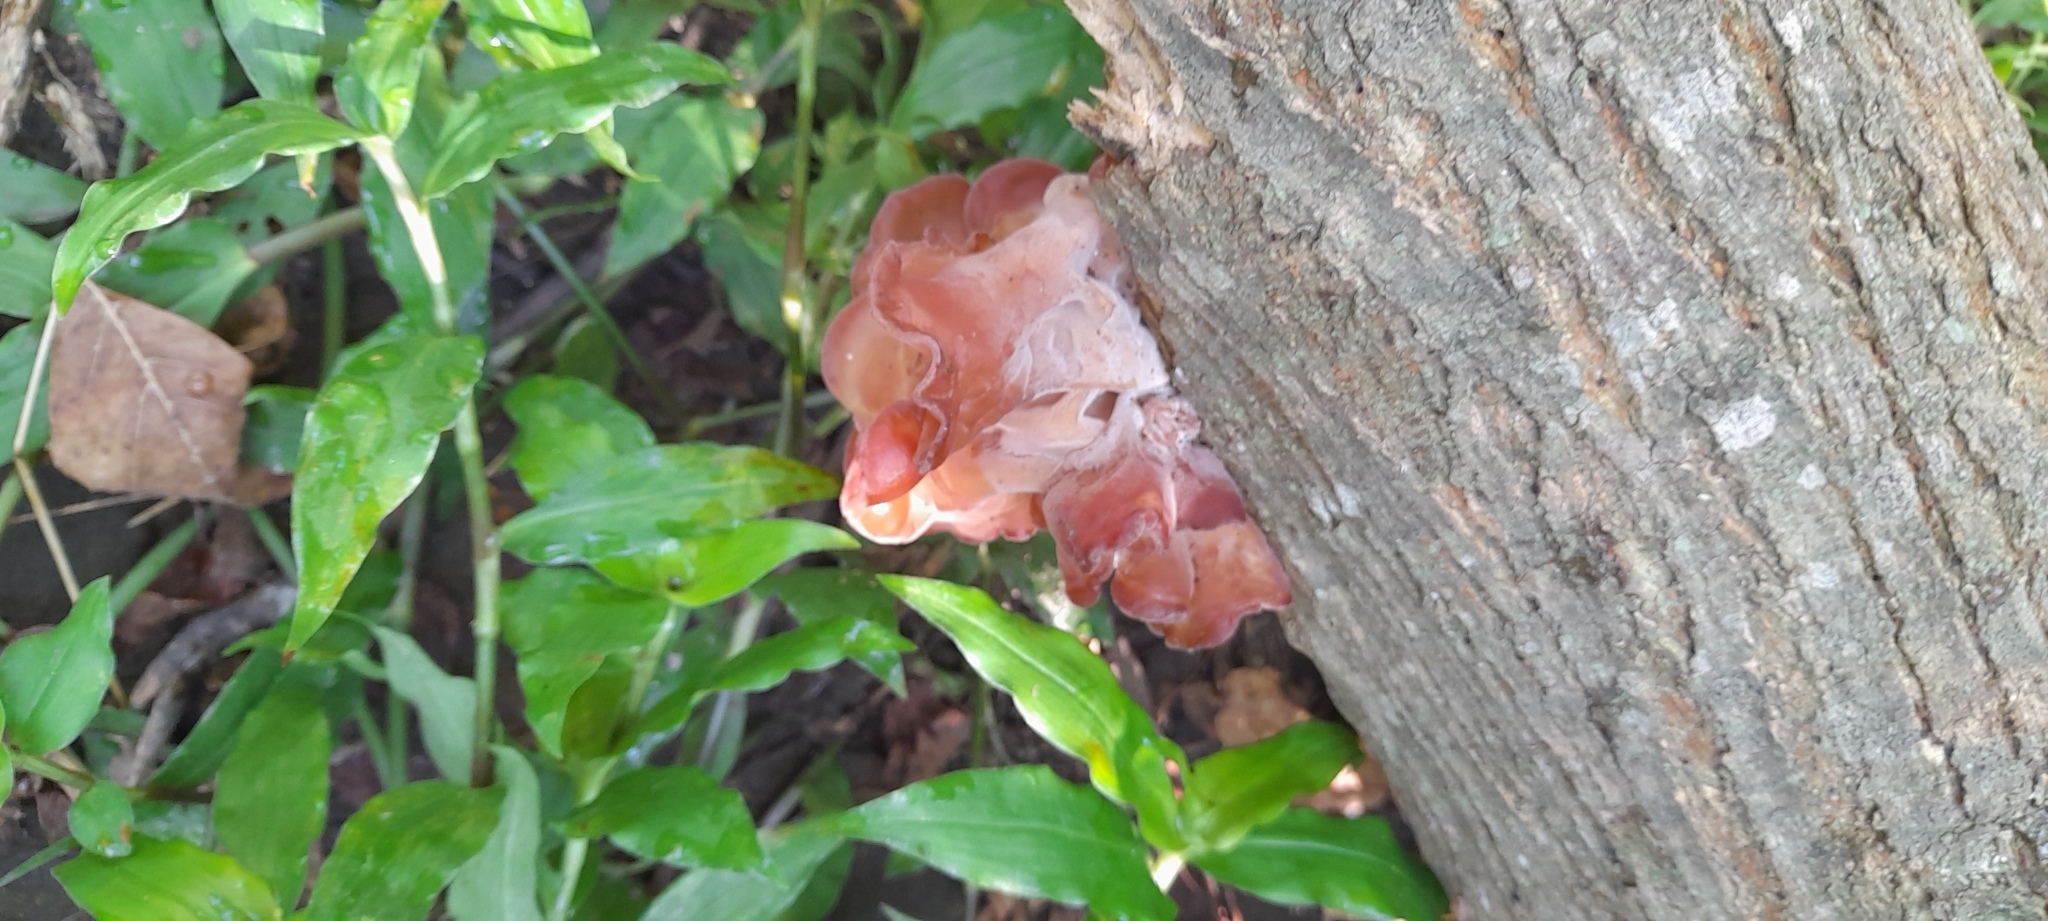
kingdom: Fungi
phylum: Basidiomycota
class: Agaricomycetes
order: Auriculariales
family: Auriculariaceae
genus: Auricularia
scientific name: Auricularia fuscosuccinea
